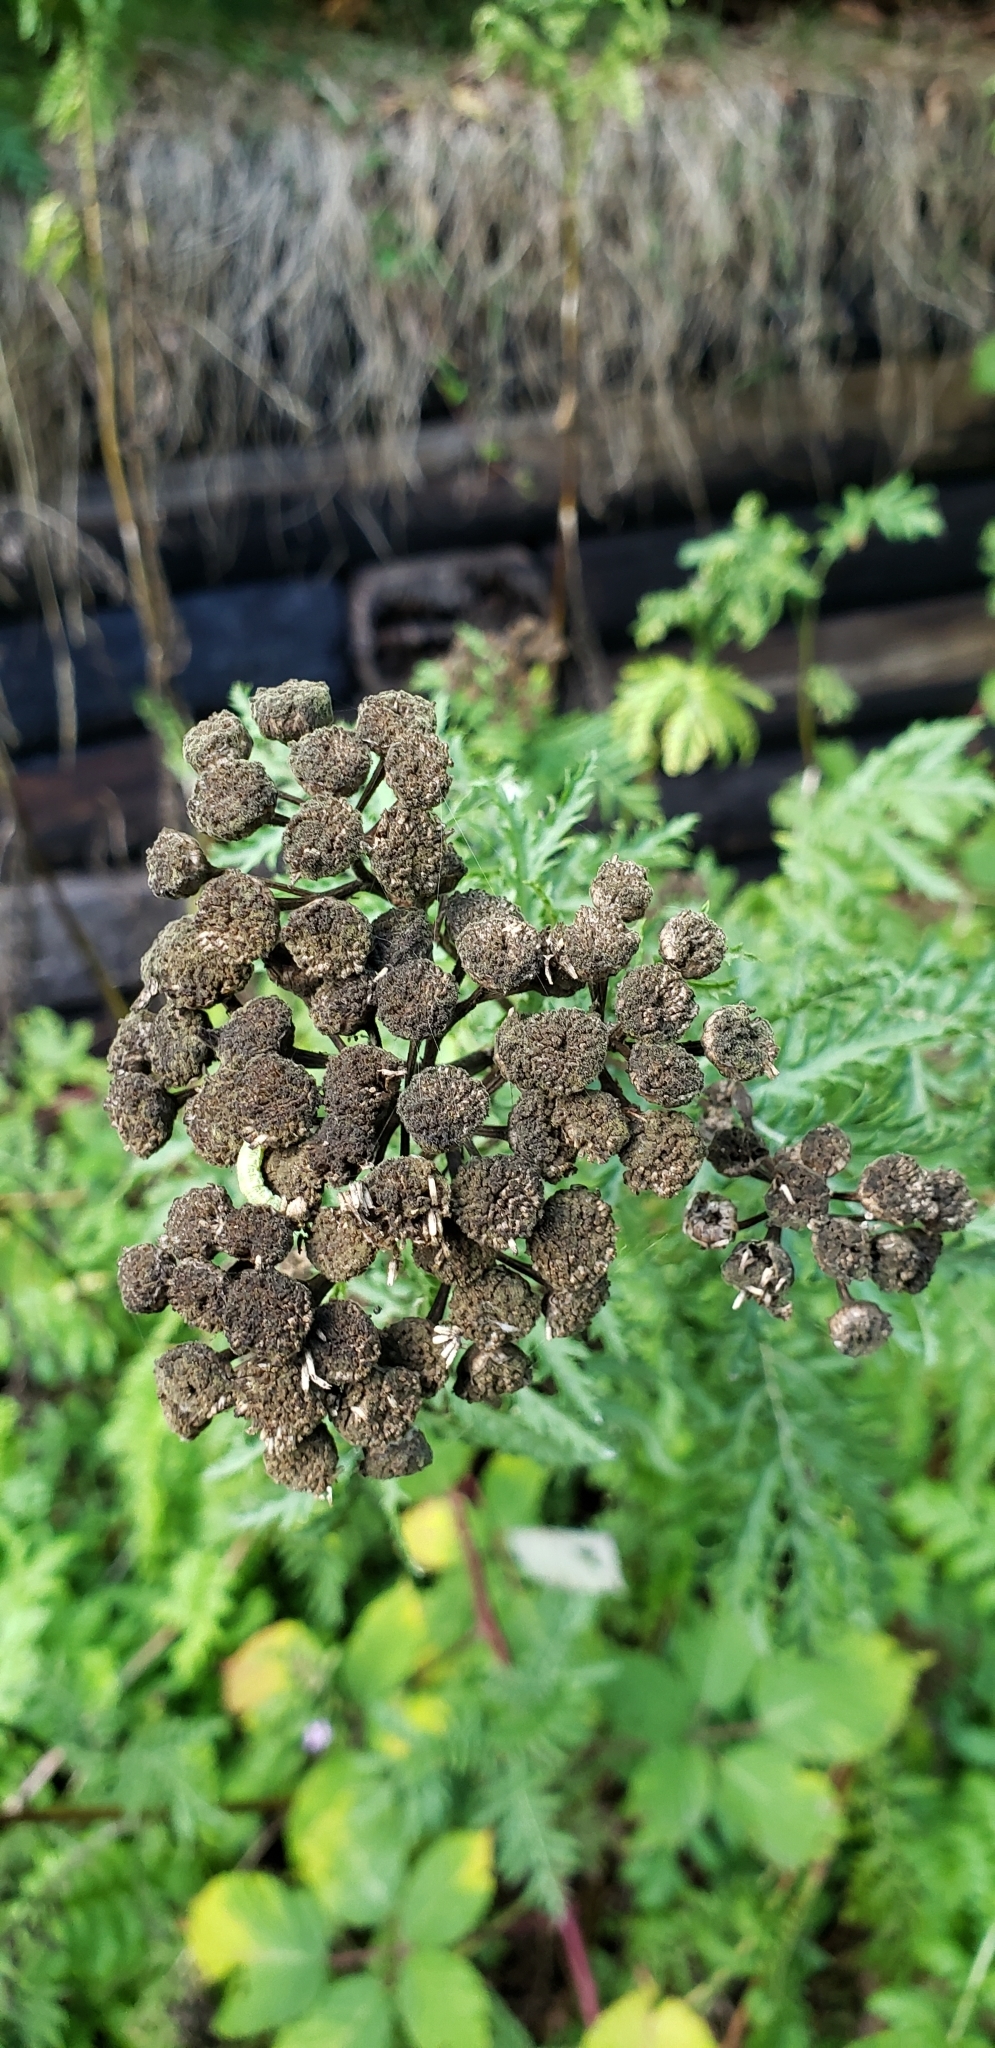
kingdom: Plantae
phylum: Tracheophyta
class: Magnoliopsida
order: Asterales
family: Asteraceae
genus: Tanacetum
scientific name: Tanacetum vulgare
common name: Common tansy
